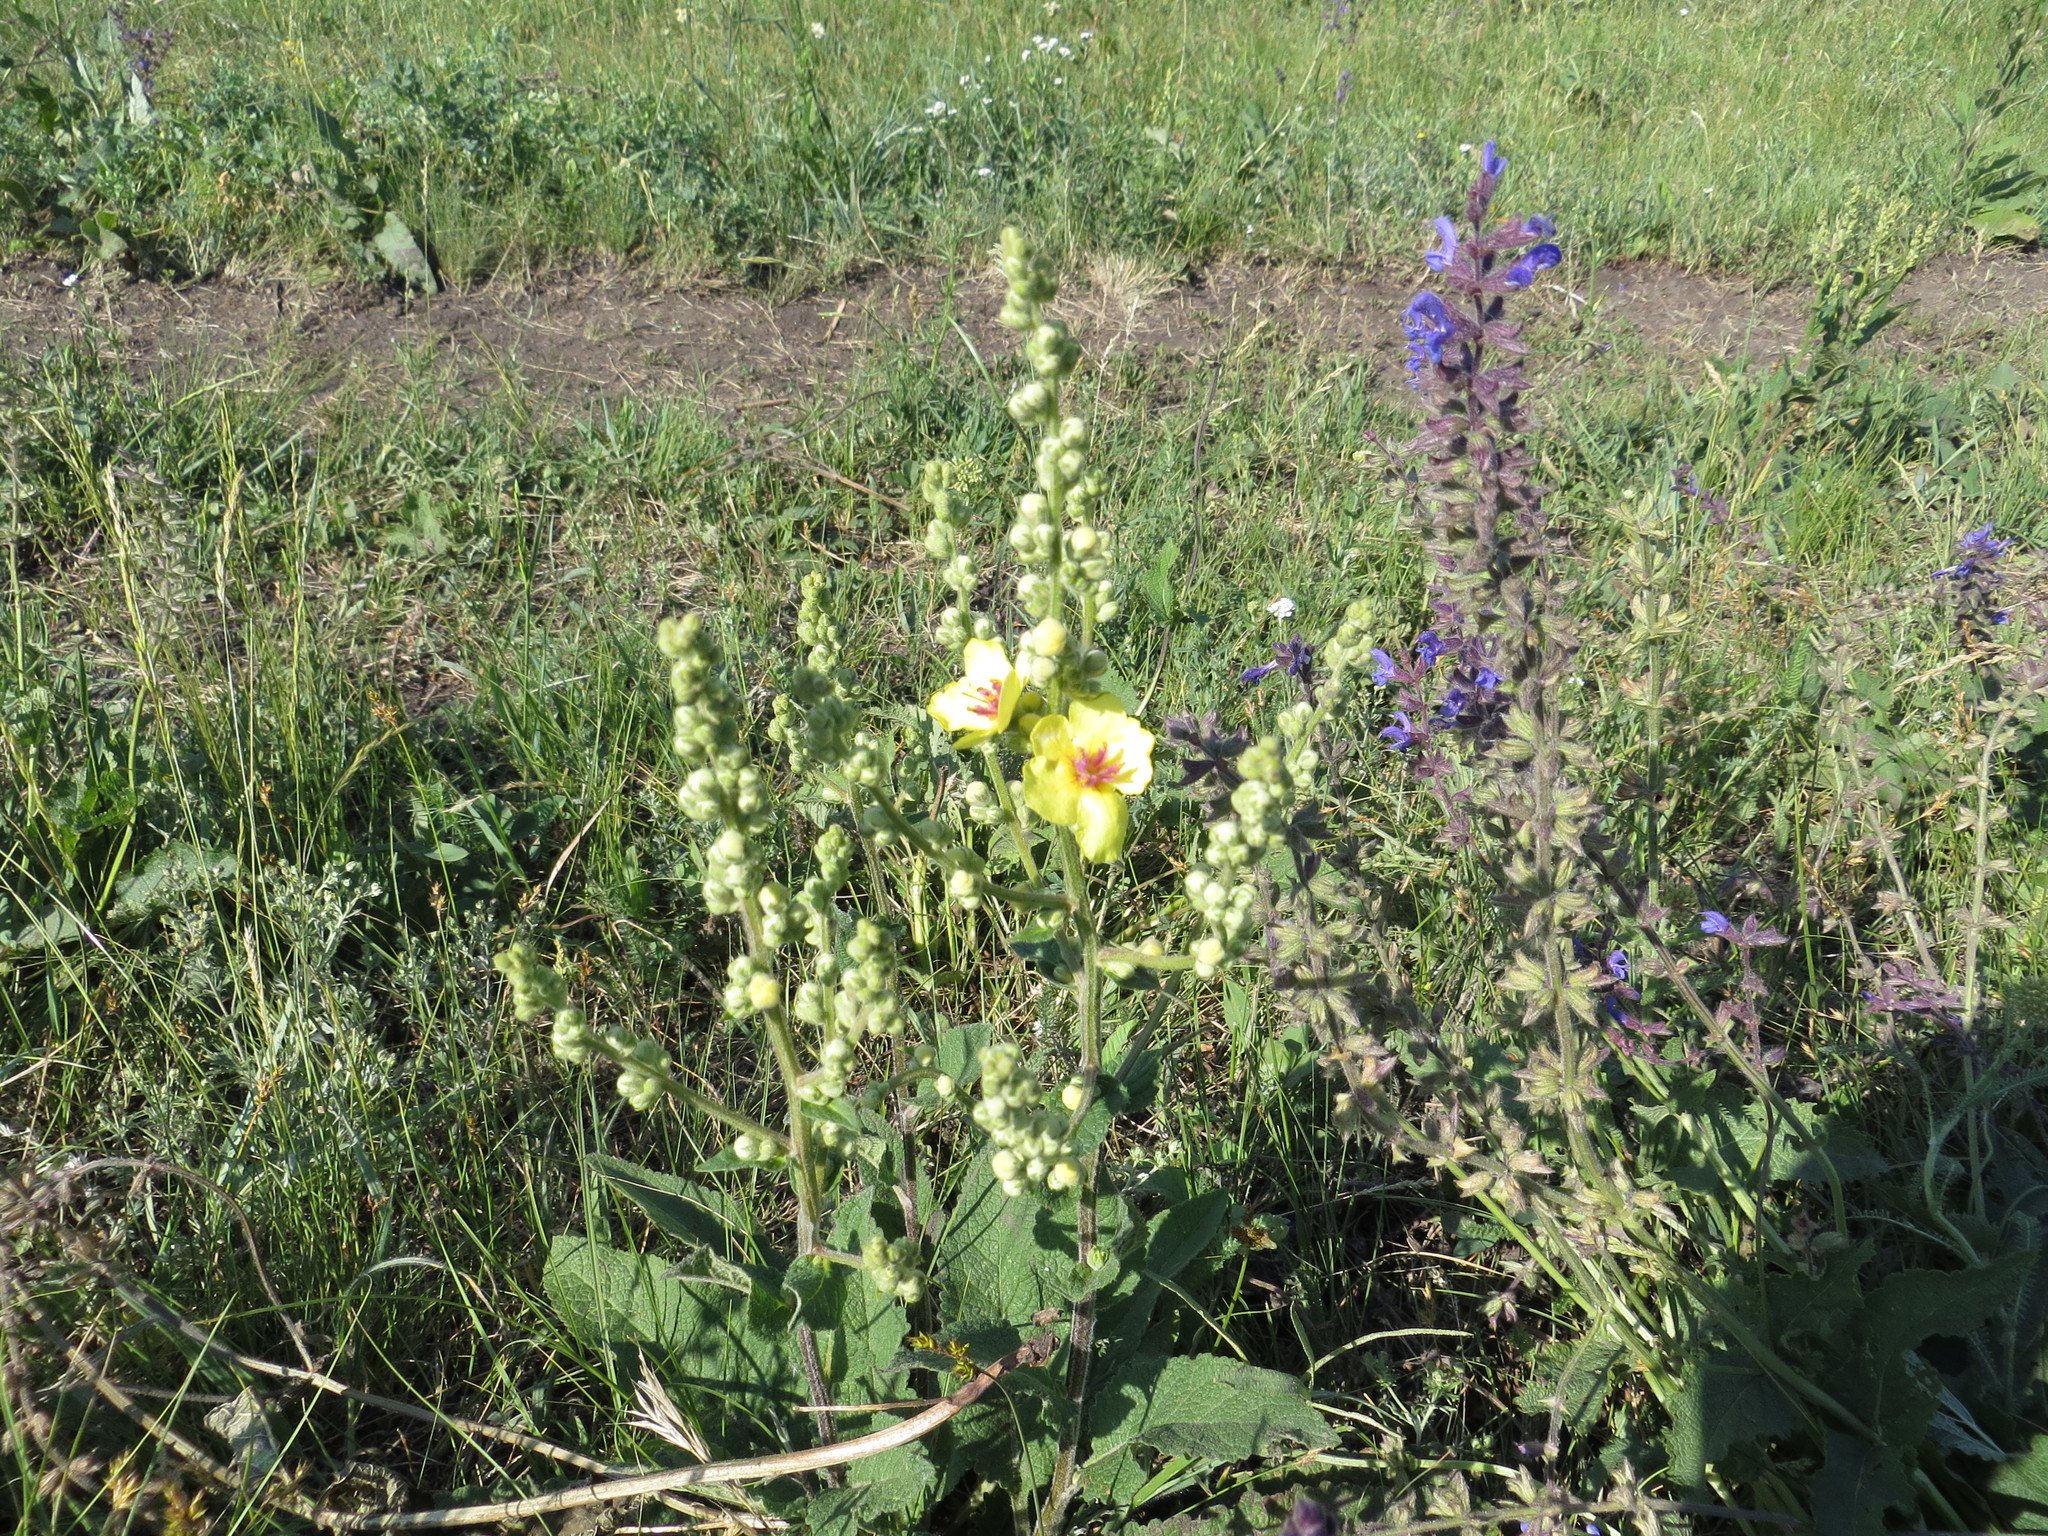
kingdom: Plantae
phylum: Tracheophyta
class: Magnoliopsida
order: Lamiales
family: Scrophulariaceae
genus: Verbascum
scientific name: Verbascum chaixii
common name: Nettle-leaved mullein
